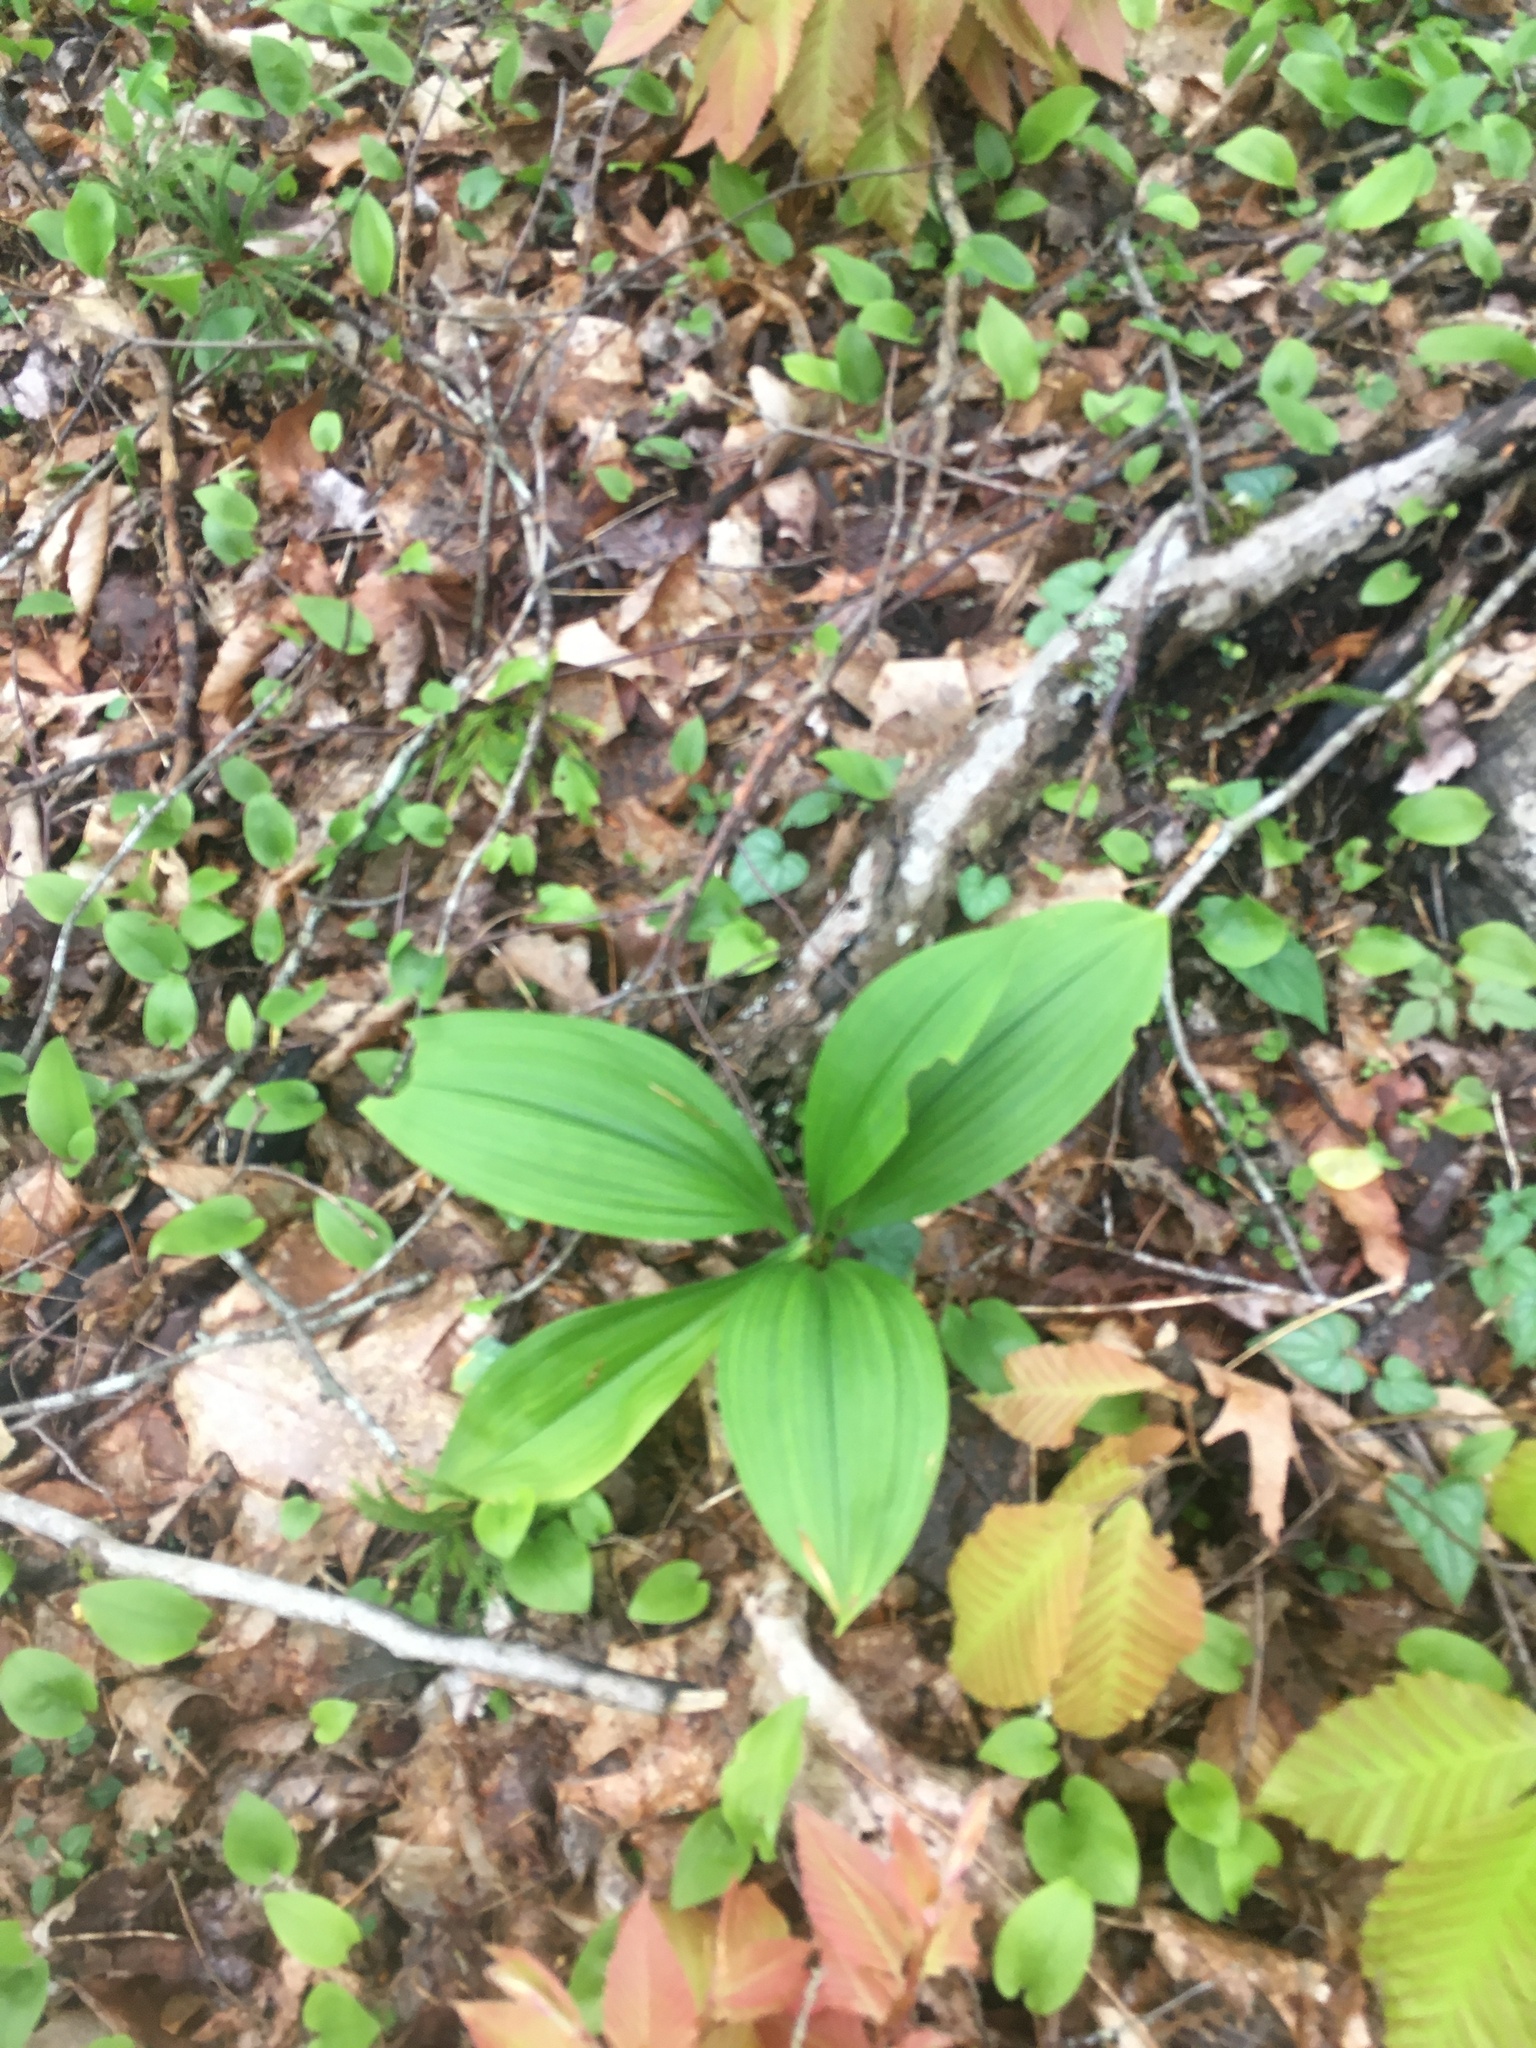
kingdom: Plantae
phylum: Tracheophyta
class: Liliopsida
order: Liliales
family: Melanthiaceae
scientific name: Melanthiaceae
